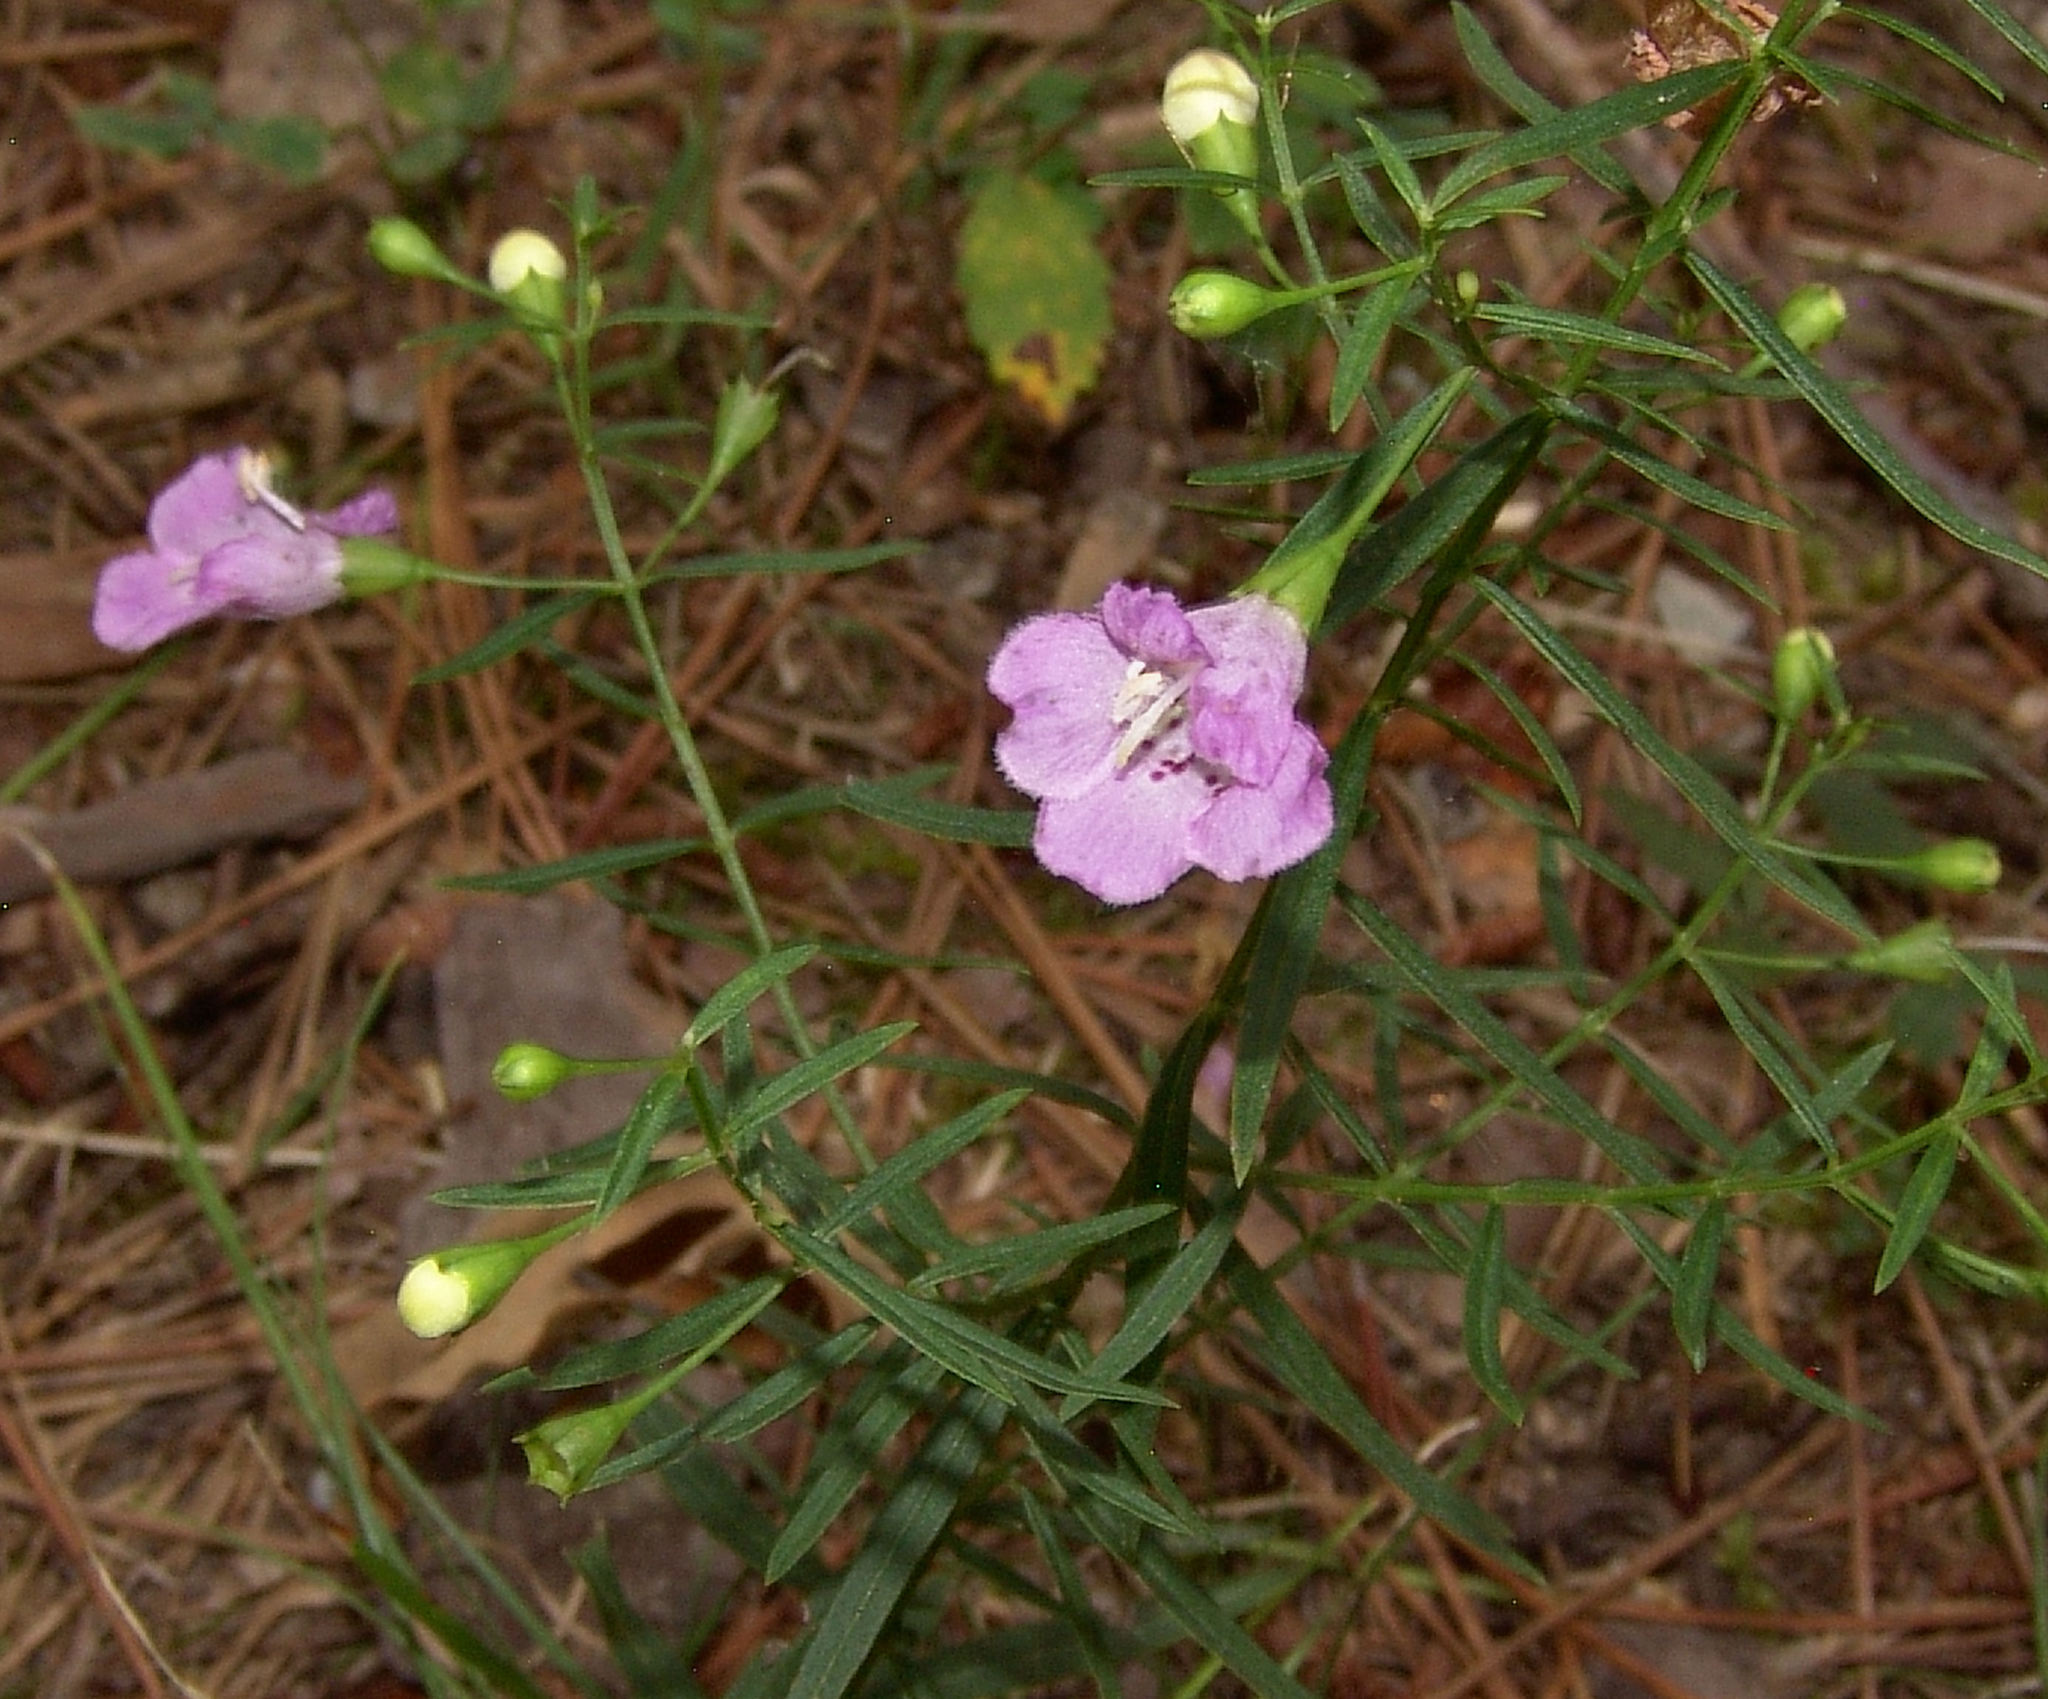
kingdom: Plantae
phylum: Tracheophyta
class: Magnoliopsida
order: Lamiales
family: Orobanchaceae
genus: Agalinis
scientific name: Agalinis tenuifolia
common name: Slender agalinis
